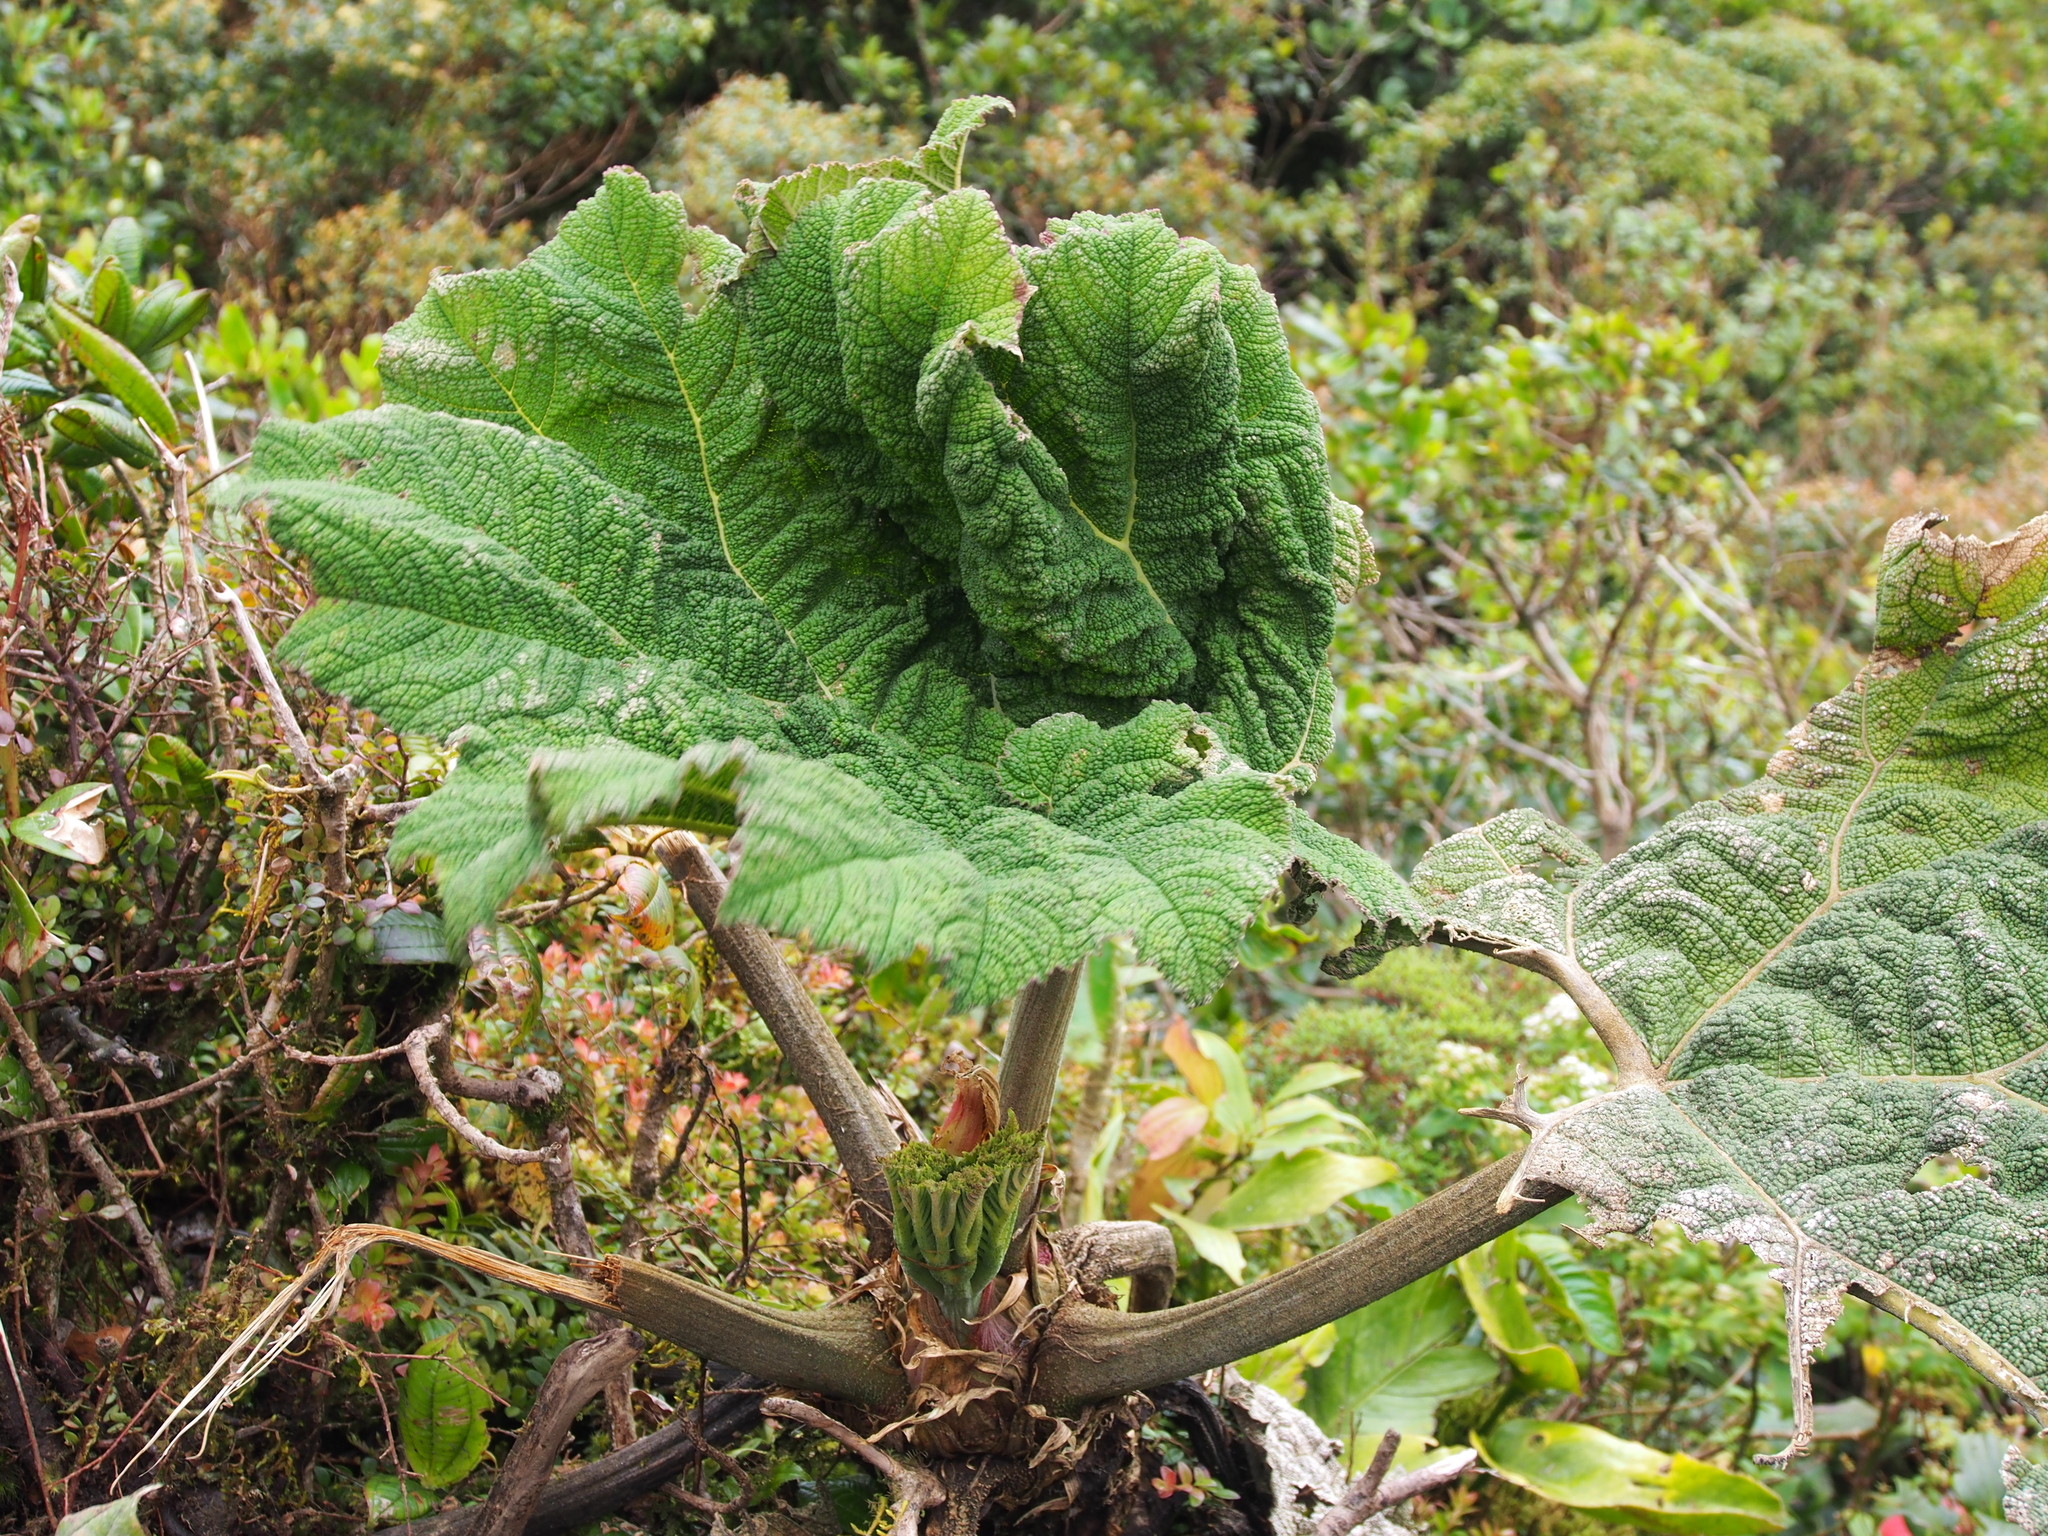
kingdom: Plantae
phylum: Tracheophyta
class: Magnoliopsida
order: Gunnerales
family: Gunneraceae
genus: Gunnera
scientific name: Gunnera insignis
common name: Poorman's umbrella
